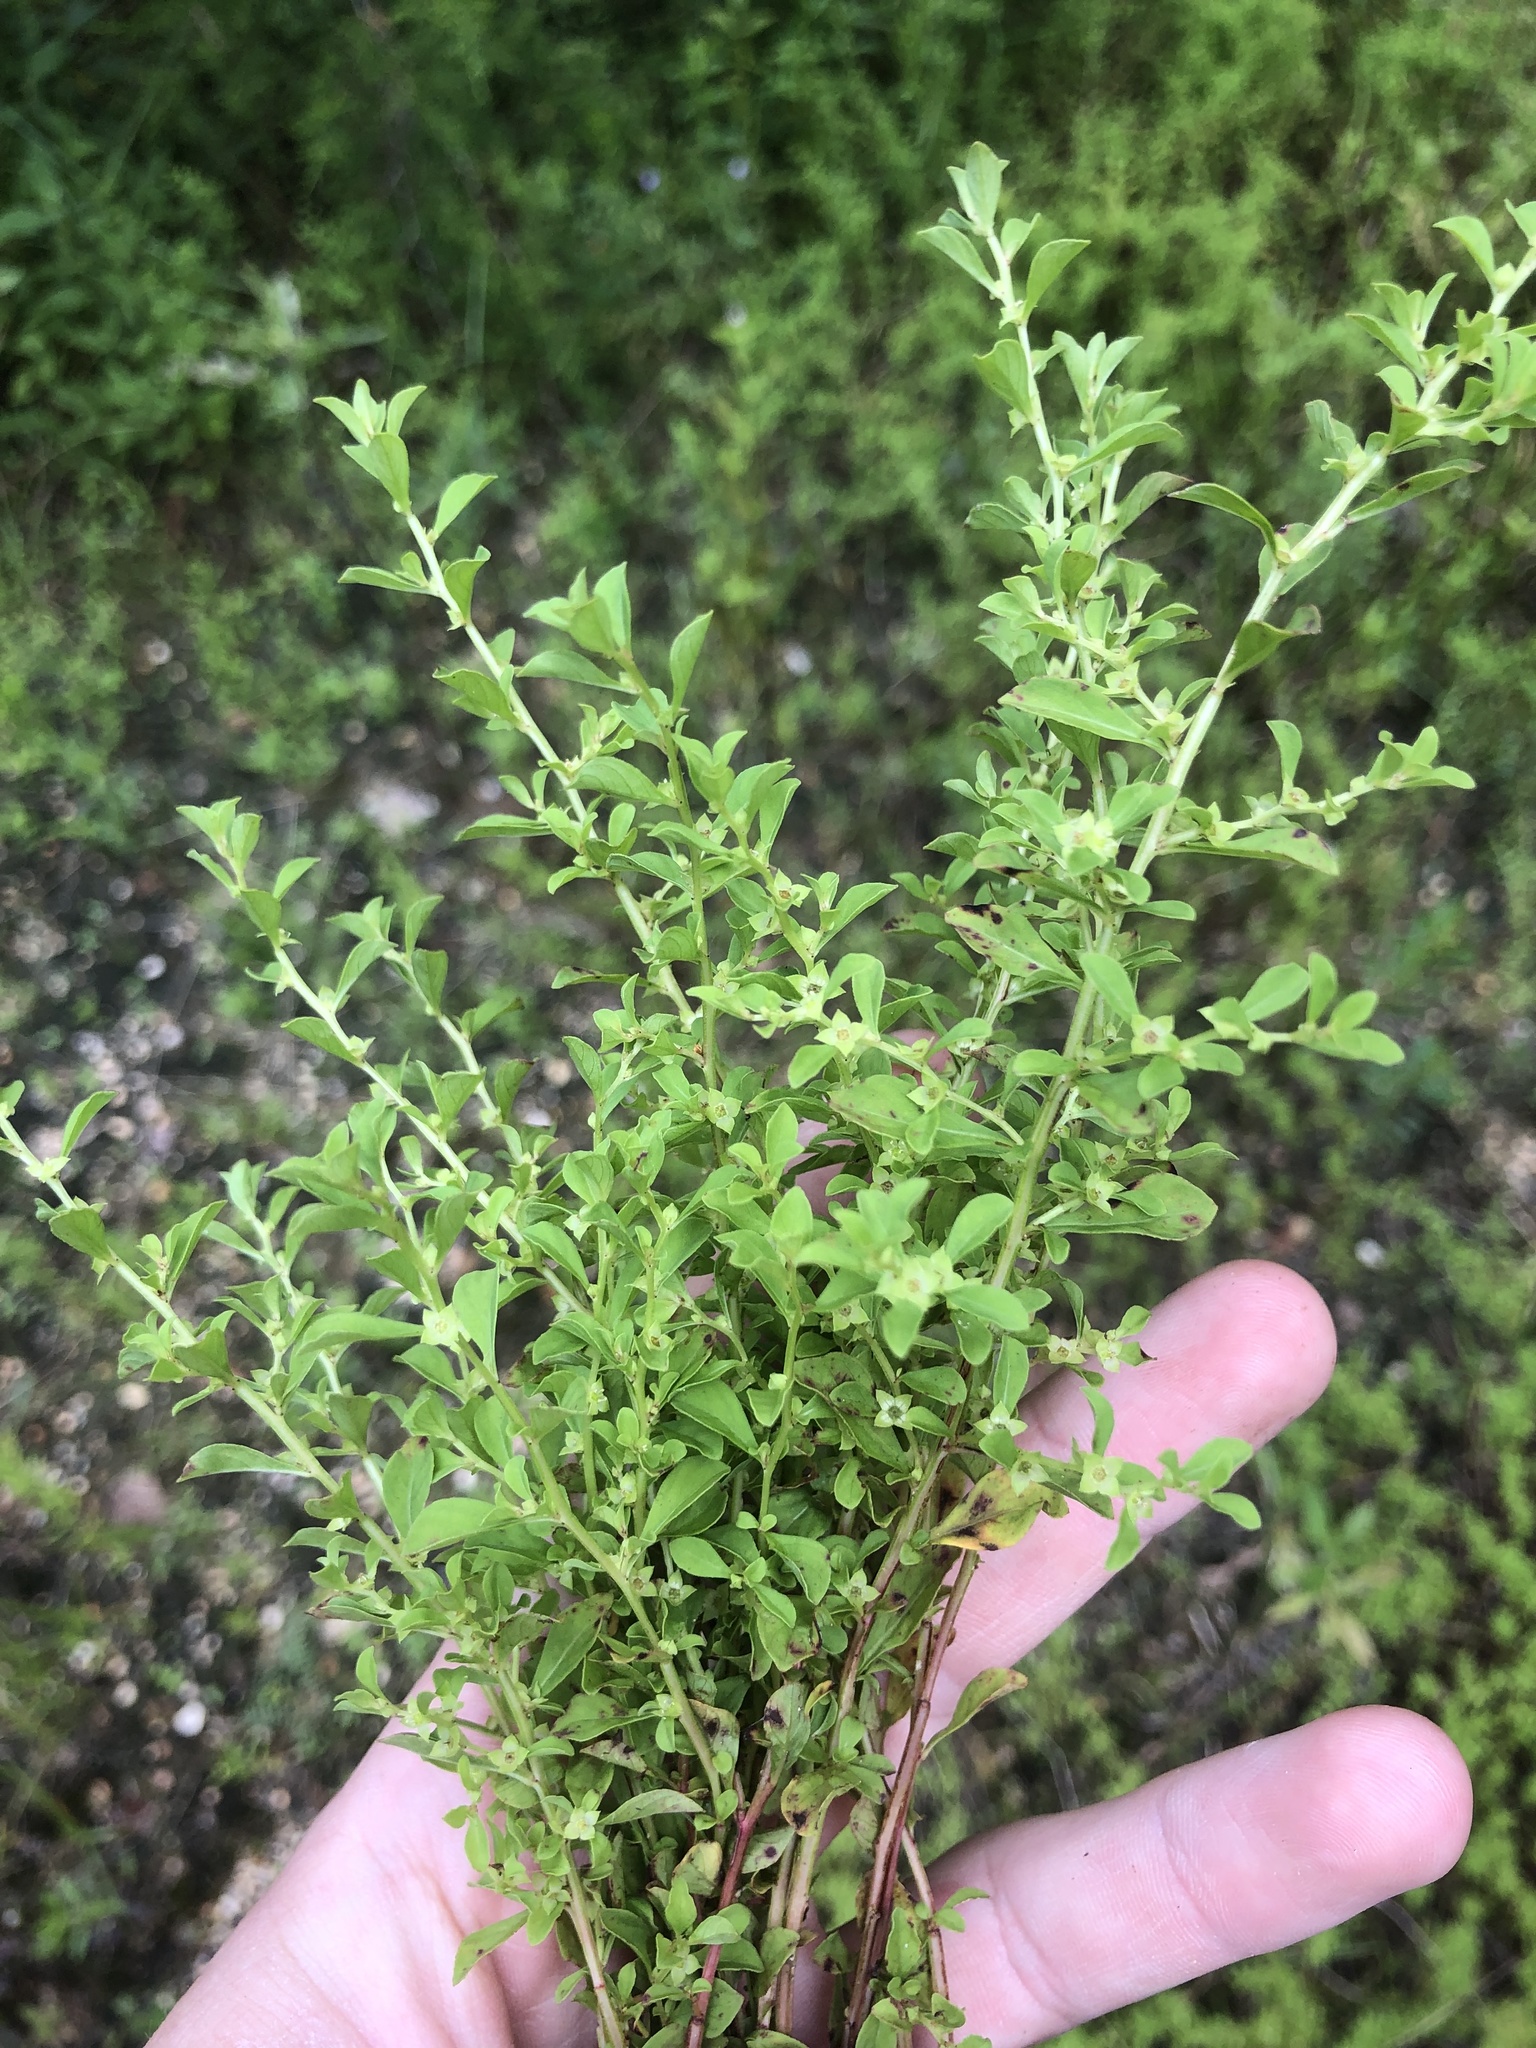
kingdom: Plantae
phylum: Tracheophyta
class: Magnoliopsida
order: Myrtales
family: Onagraceae
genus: Ludwigia
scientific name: Ludwigia microcarpa
